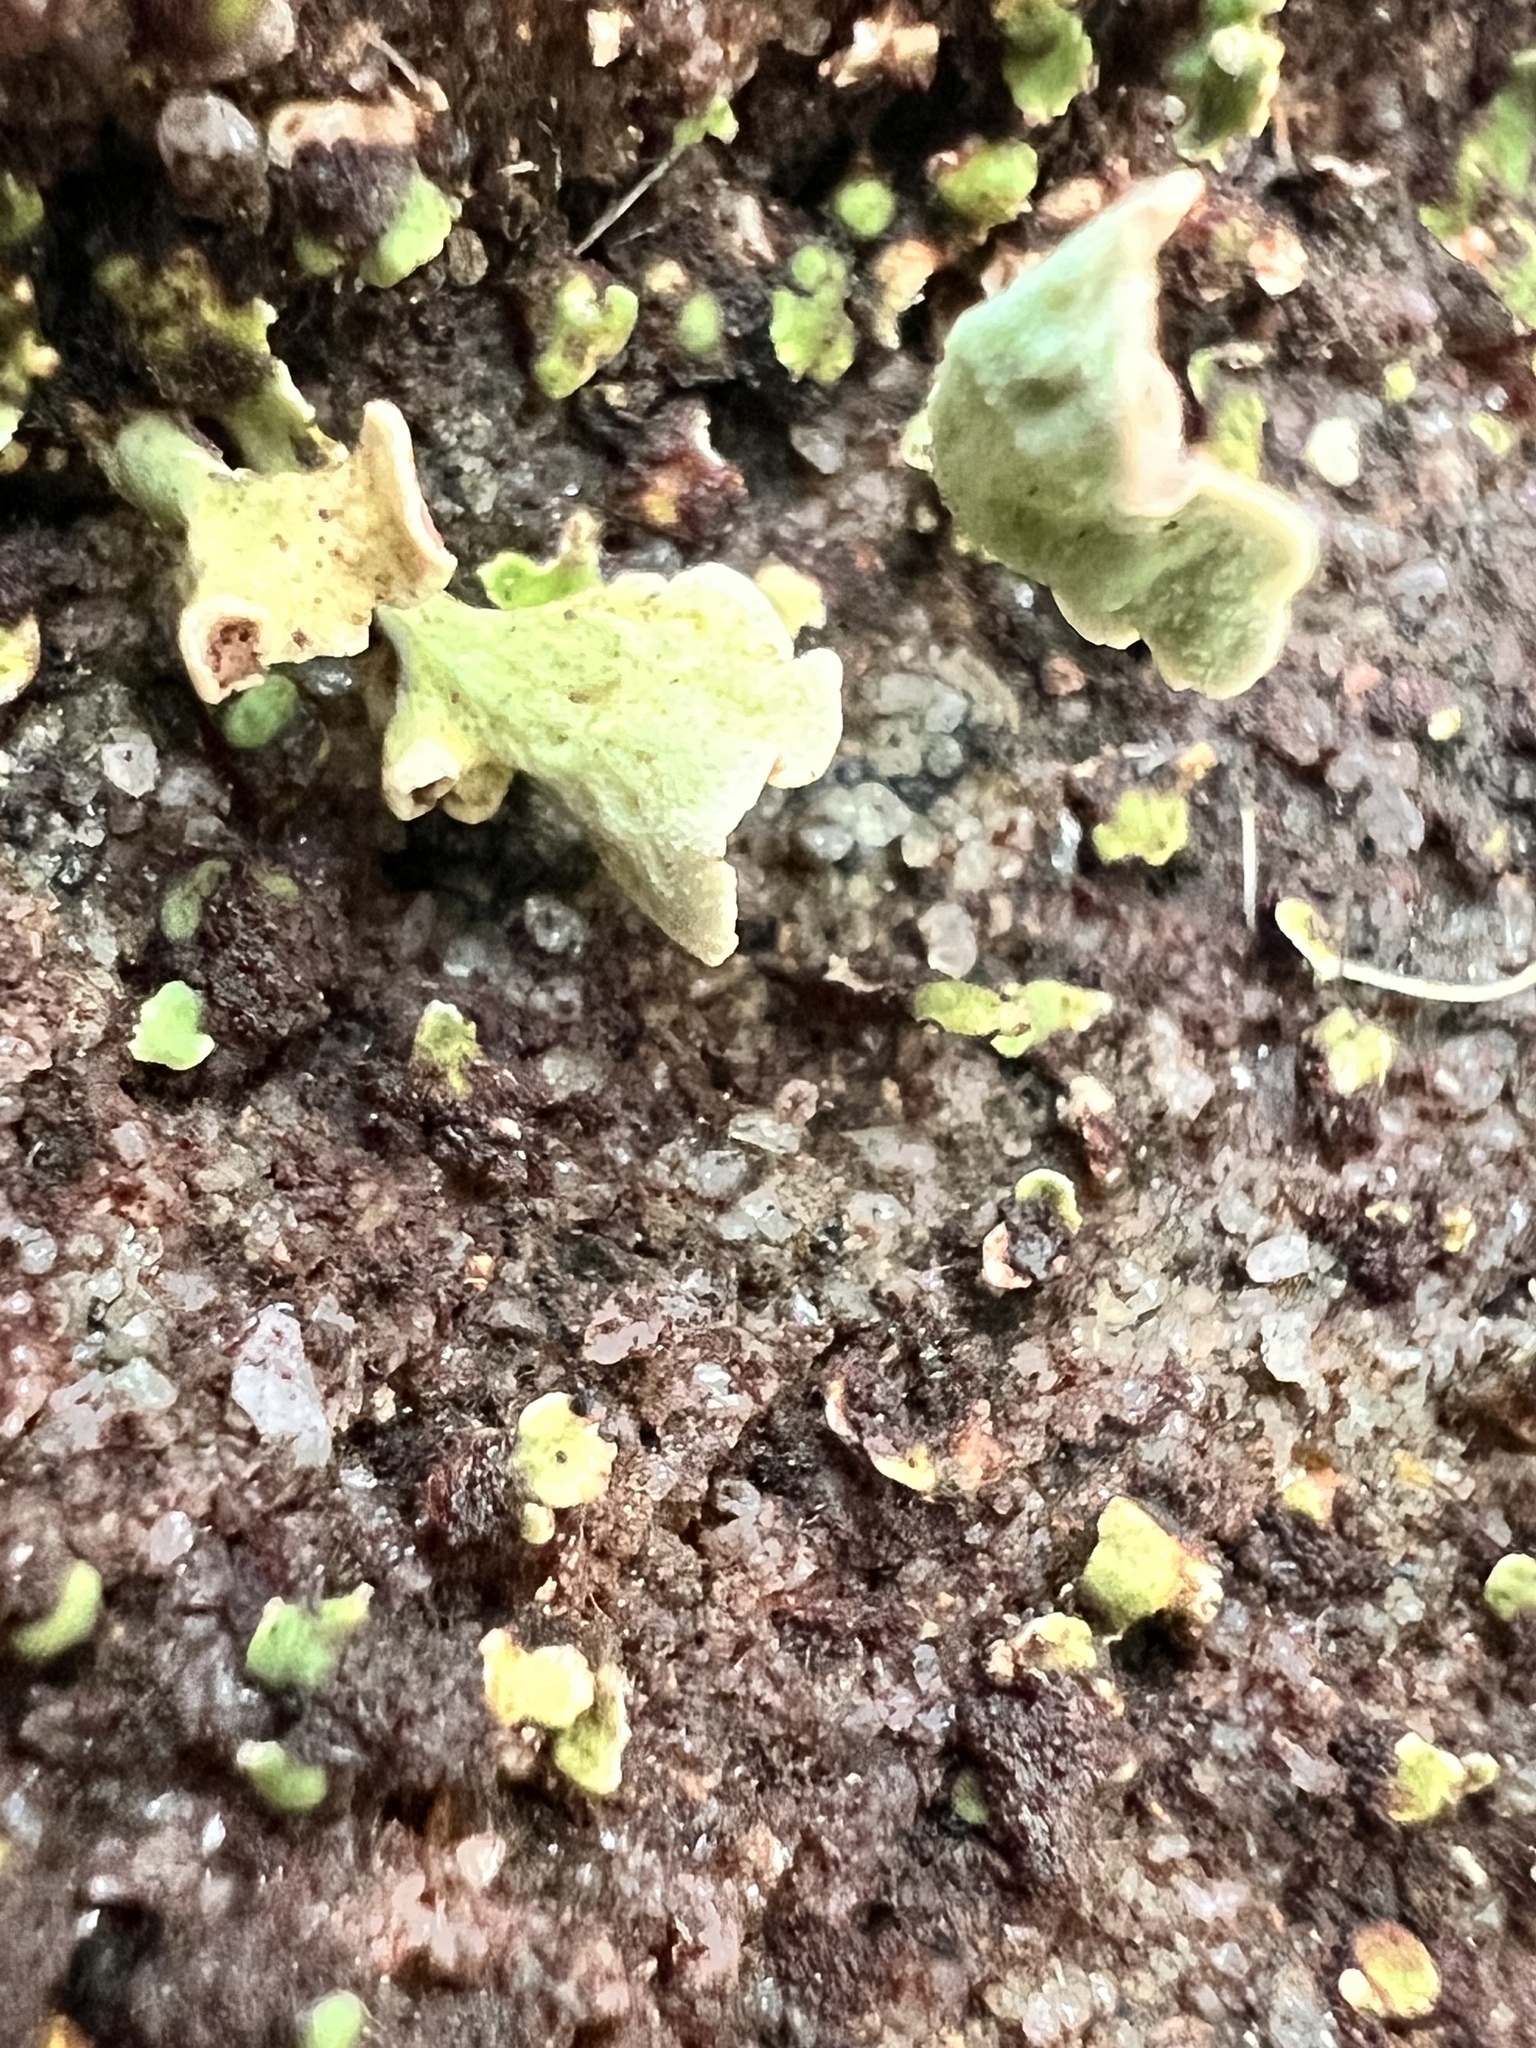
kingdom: Fungi
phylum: Ascomycota
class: Lecanoromycetes
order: Lecanorales
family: Cladoniaceae
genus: Thysanothecium
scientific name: Thysanothecium hookeri
